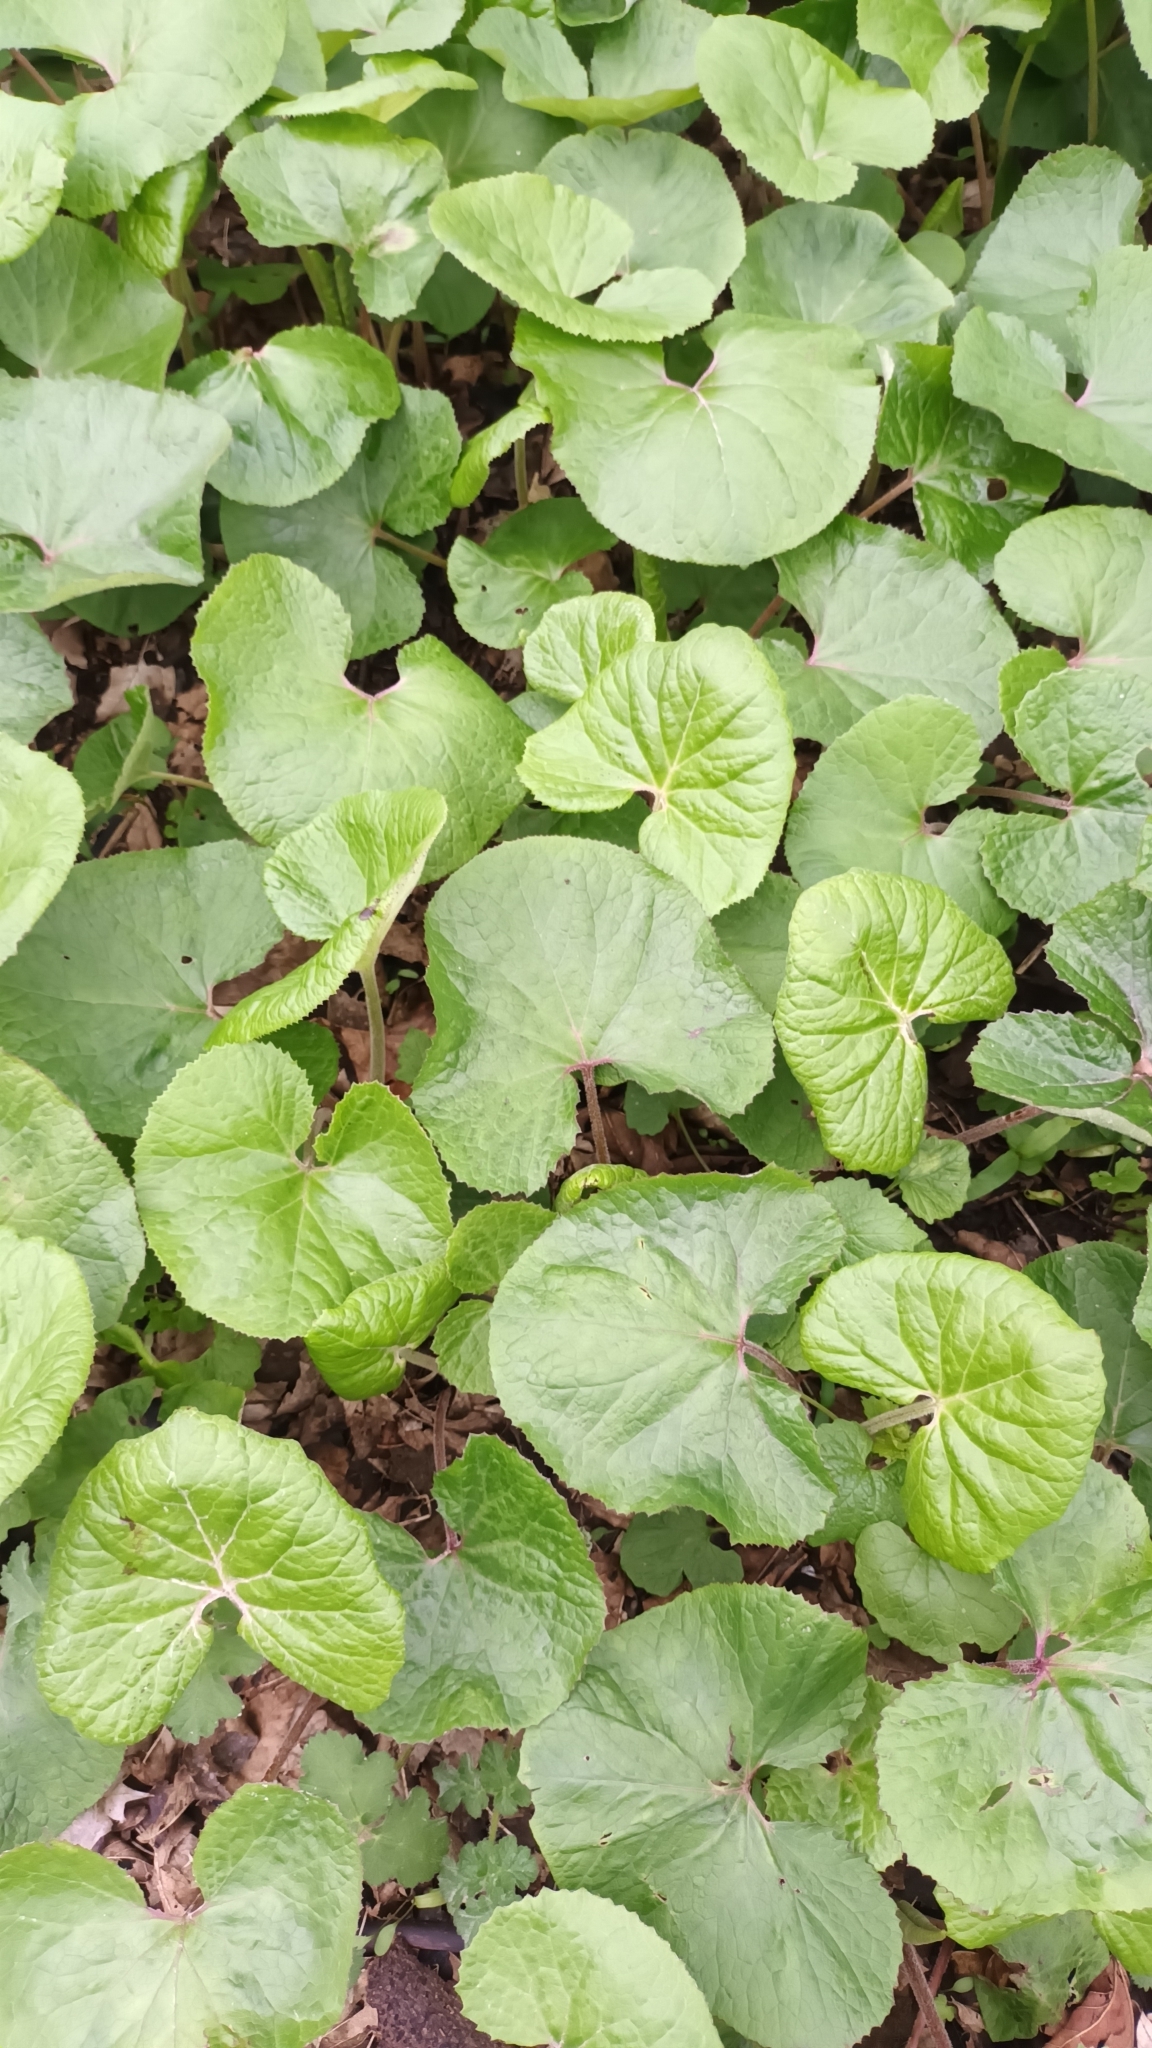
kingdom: Plantae
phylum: Tracheophyta
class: Magnoliopsida
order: Asterales
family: Asteraceae
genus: Petasites
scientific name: Petasites pyrenaicus
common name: Winter heliotrope
